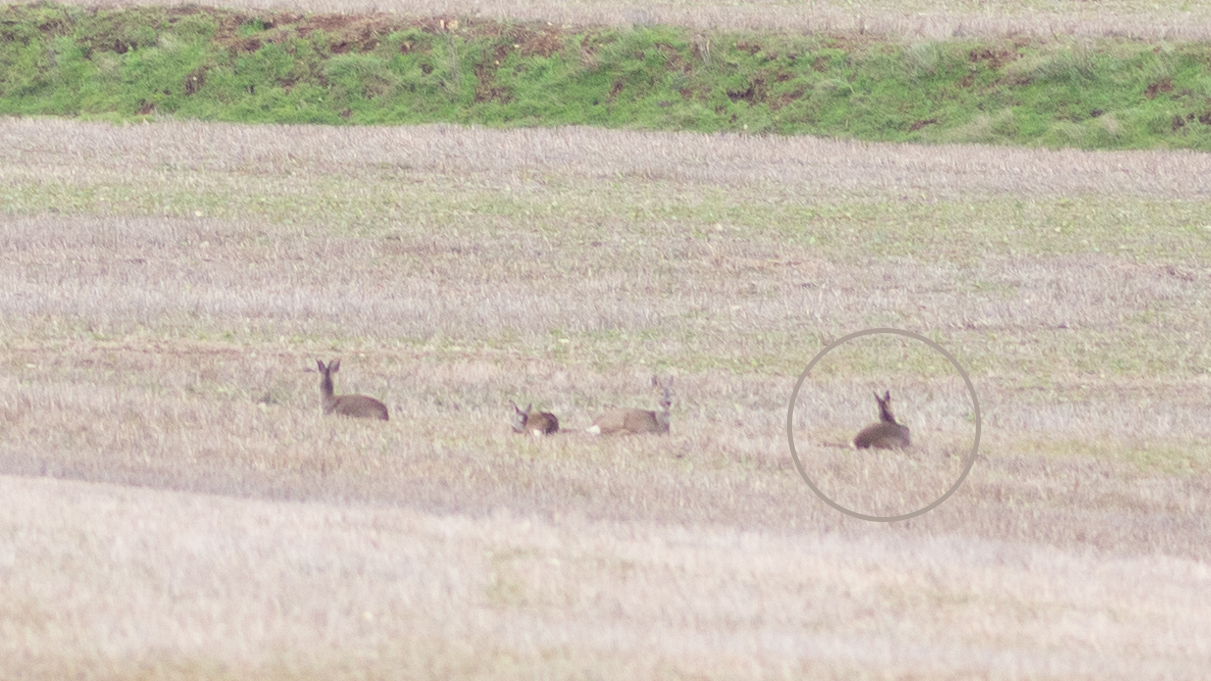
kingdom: Animalia
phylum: Chordata
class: Mammalia
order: Artiodactyla
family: Cervidae
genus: Capreolus
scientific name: Capreolus capreolus
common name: Western roe deer
